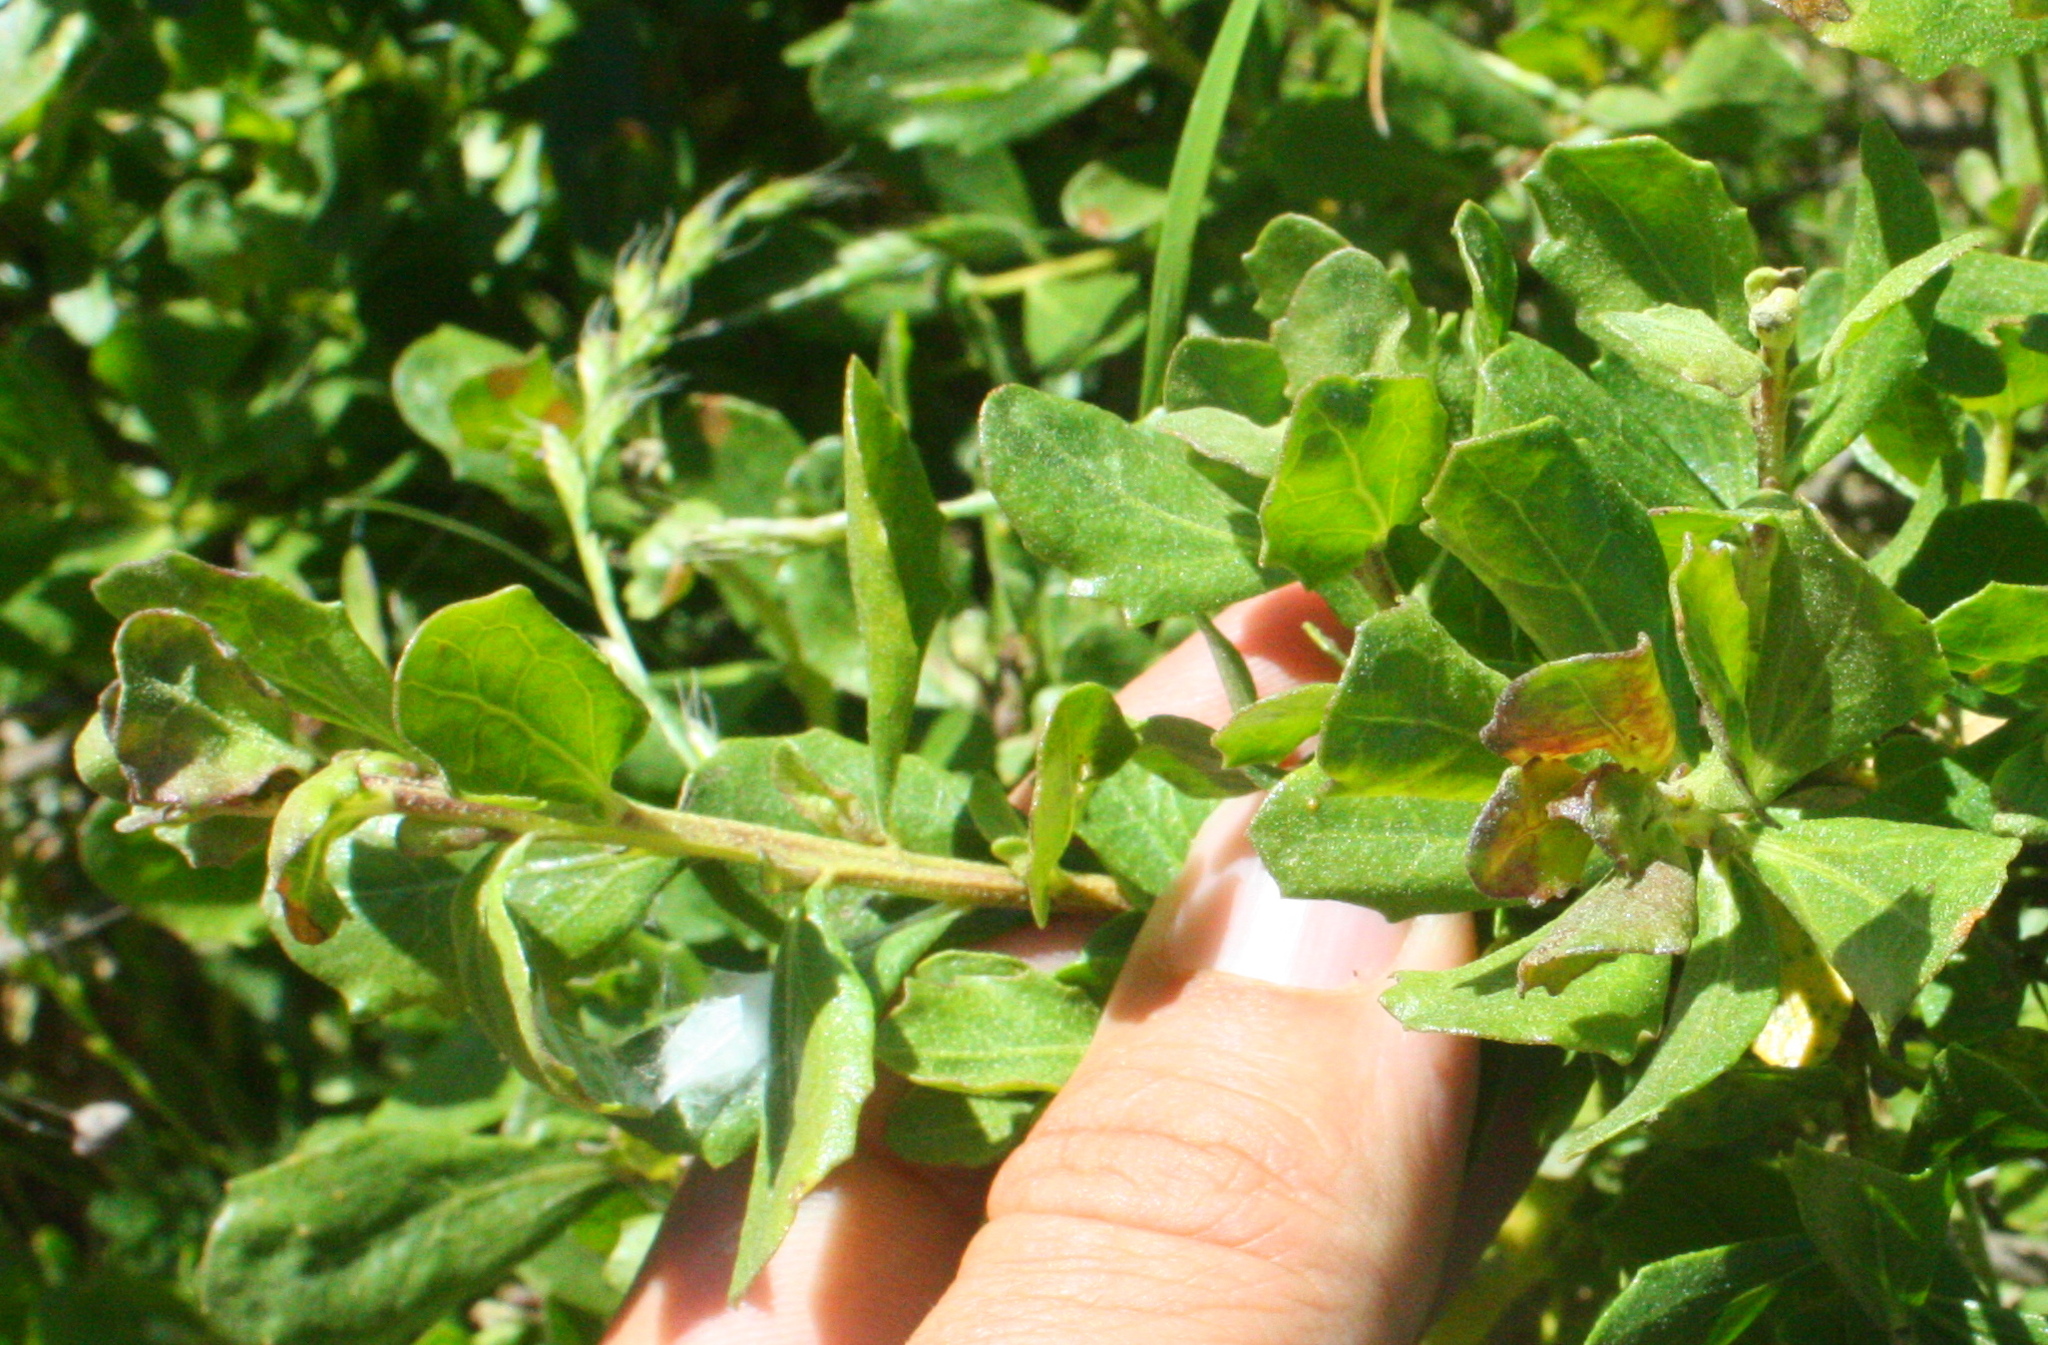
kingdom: Plantae
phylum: Tracheophyta
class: Magnoliopsida
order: Asterales
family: Asteraceae
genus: Baccharis
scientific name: Baccharis pilularis
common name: Coyotebrush
